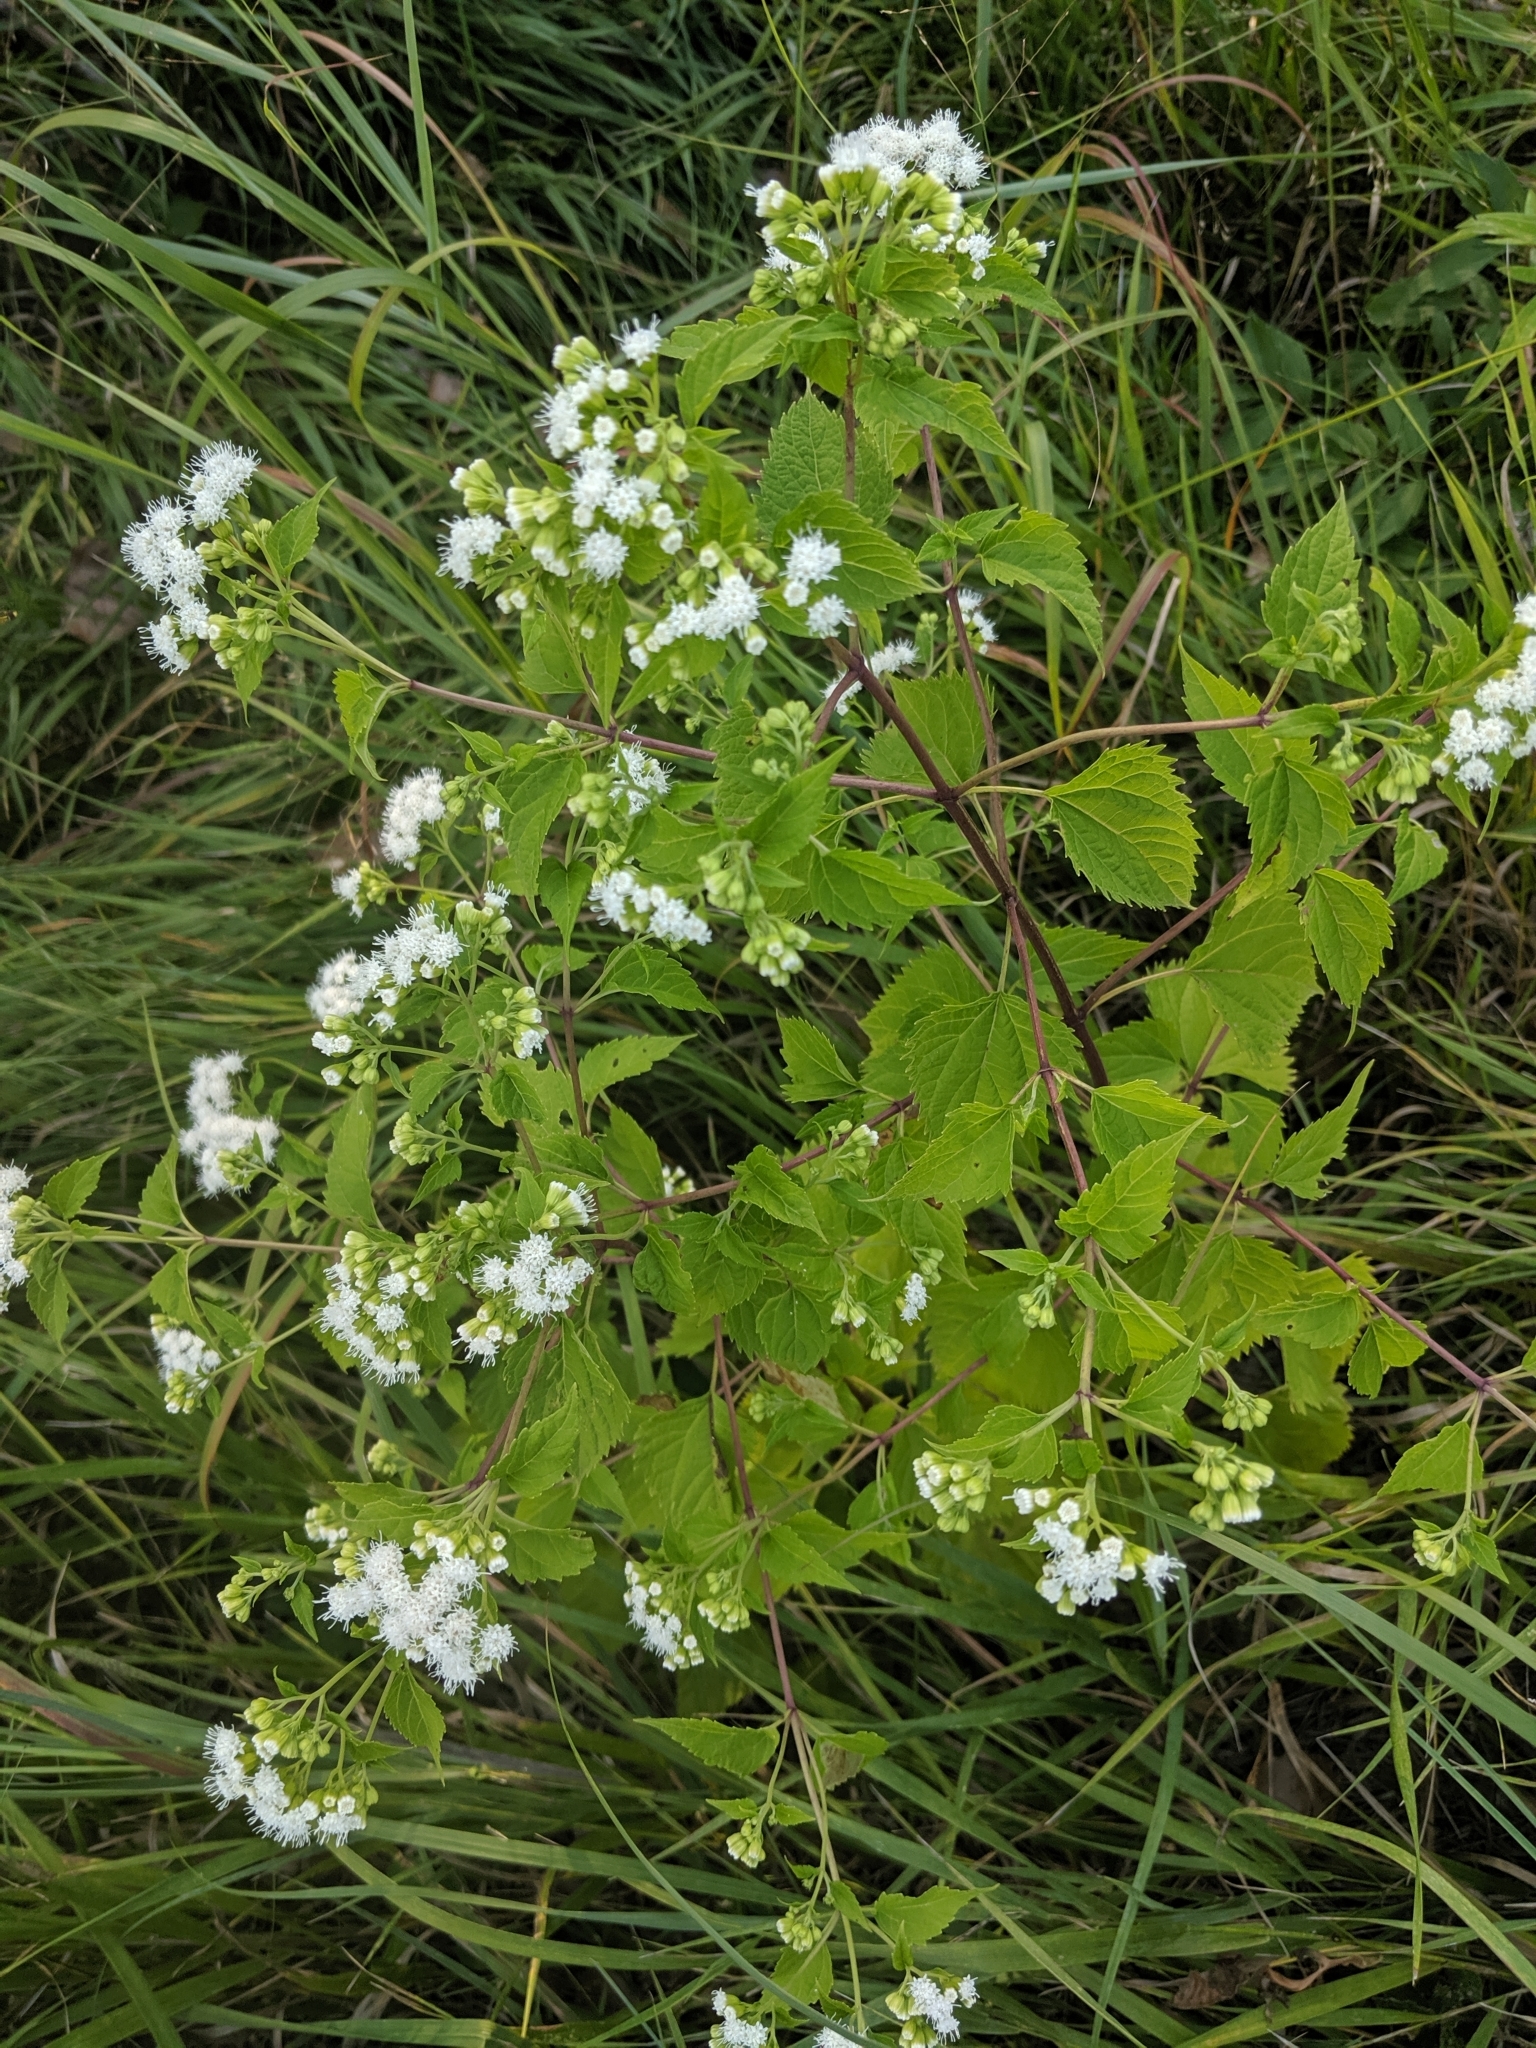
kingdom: Plantae
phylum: Tracheophyta
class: Magnoliopsida
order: Asterales
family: Asteraceae
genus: Ageratina
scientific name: Ageratina altissima
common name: White snakeroot
